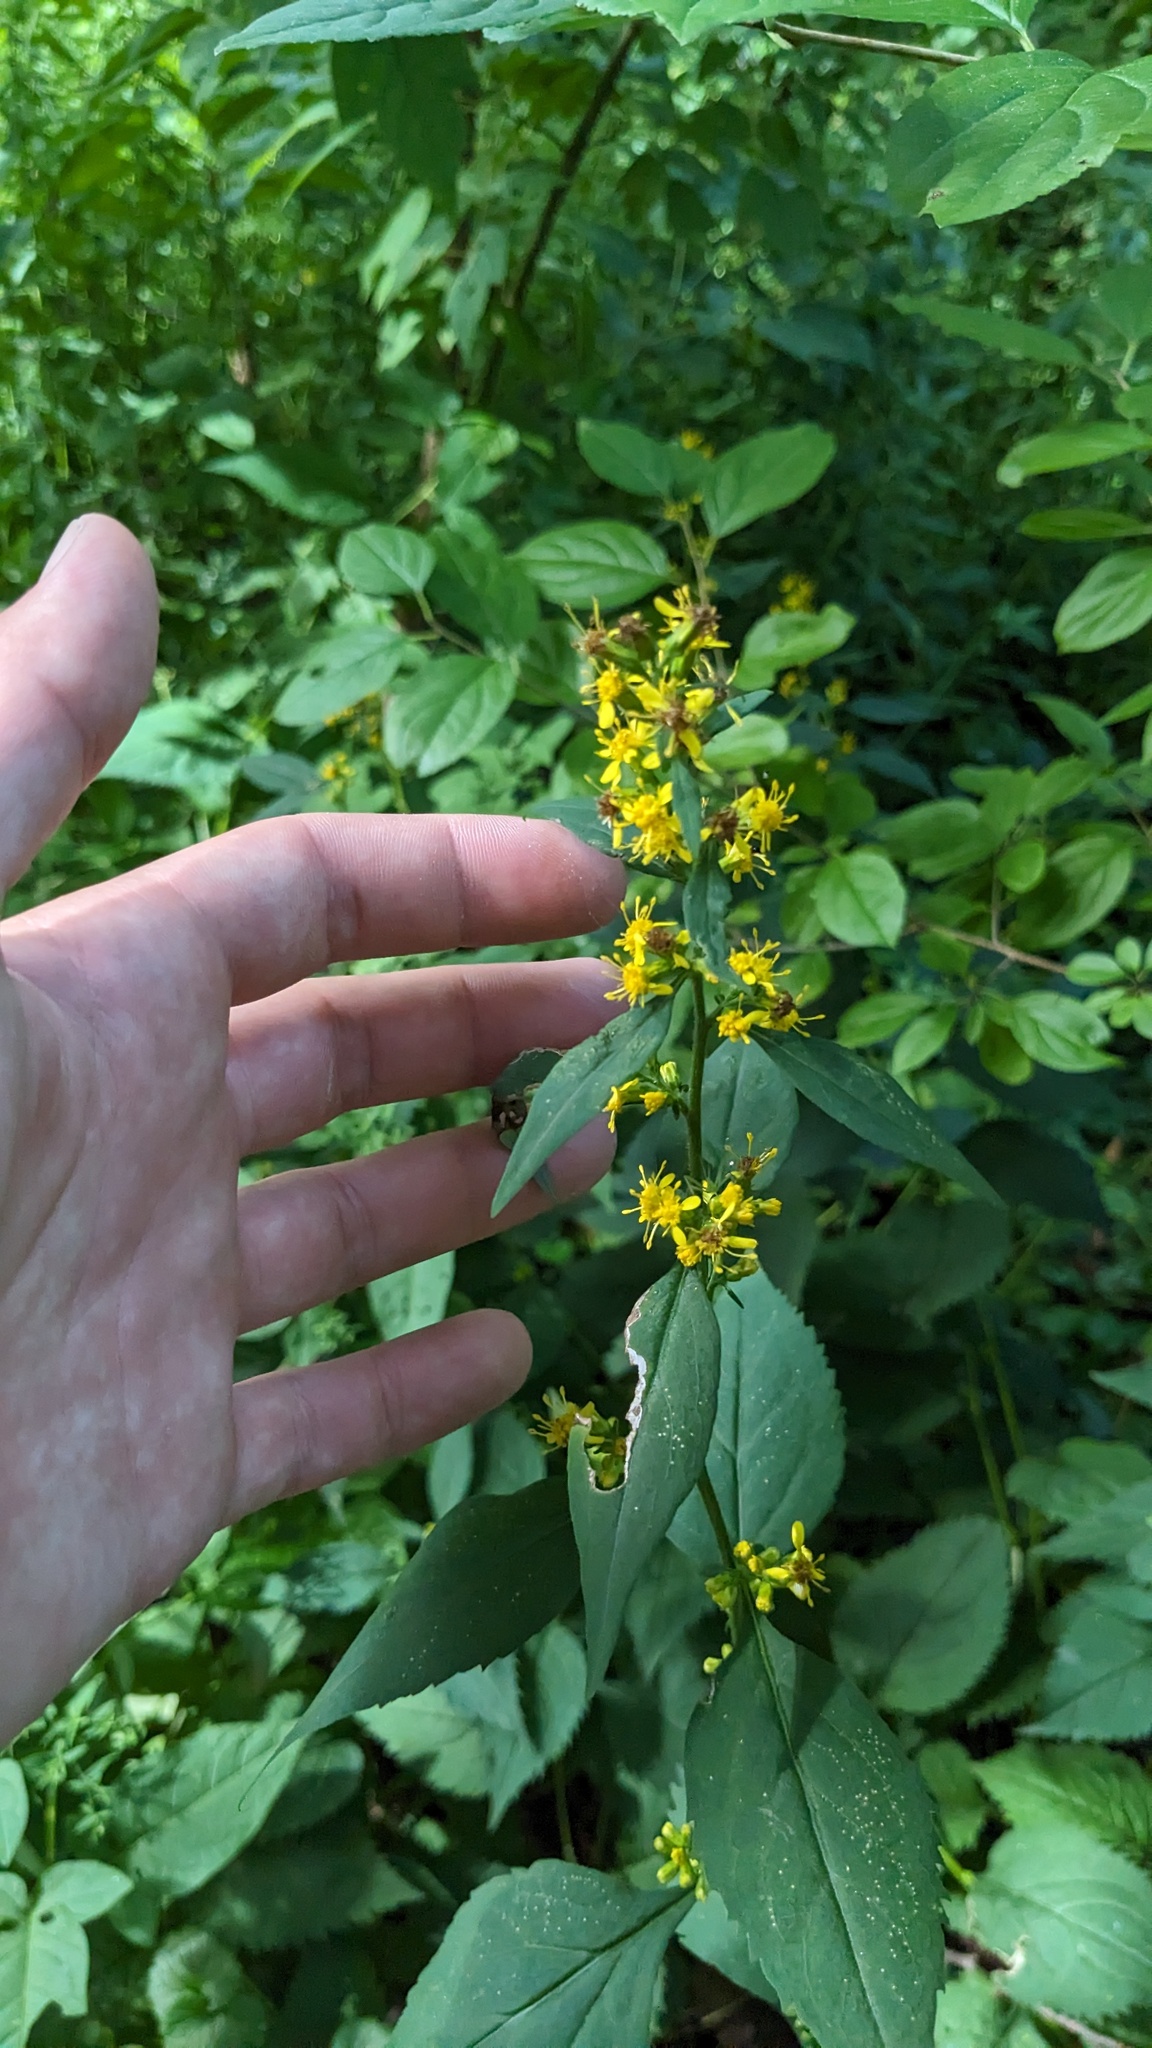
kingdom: Plantae
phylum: Tracheophyta
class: Magnoliopsida
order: Asterales
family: Asteraceae
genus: Solidago
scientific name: Solidago flexicaulis
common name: Zig-zag goldenrod
